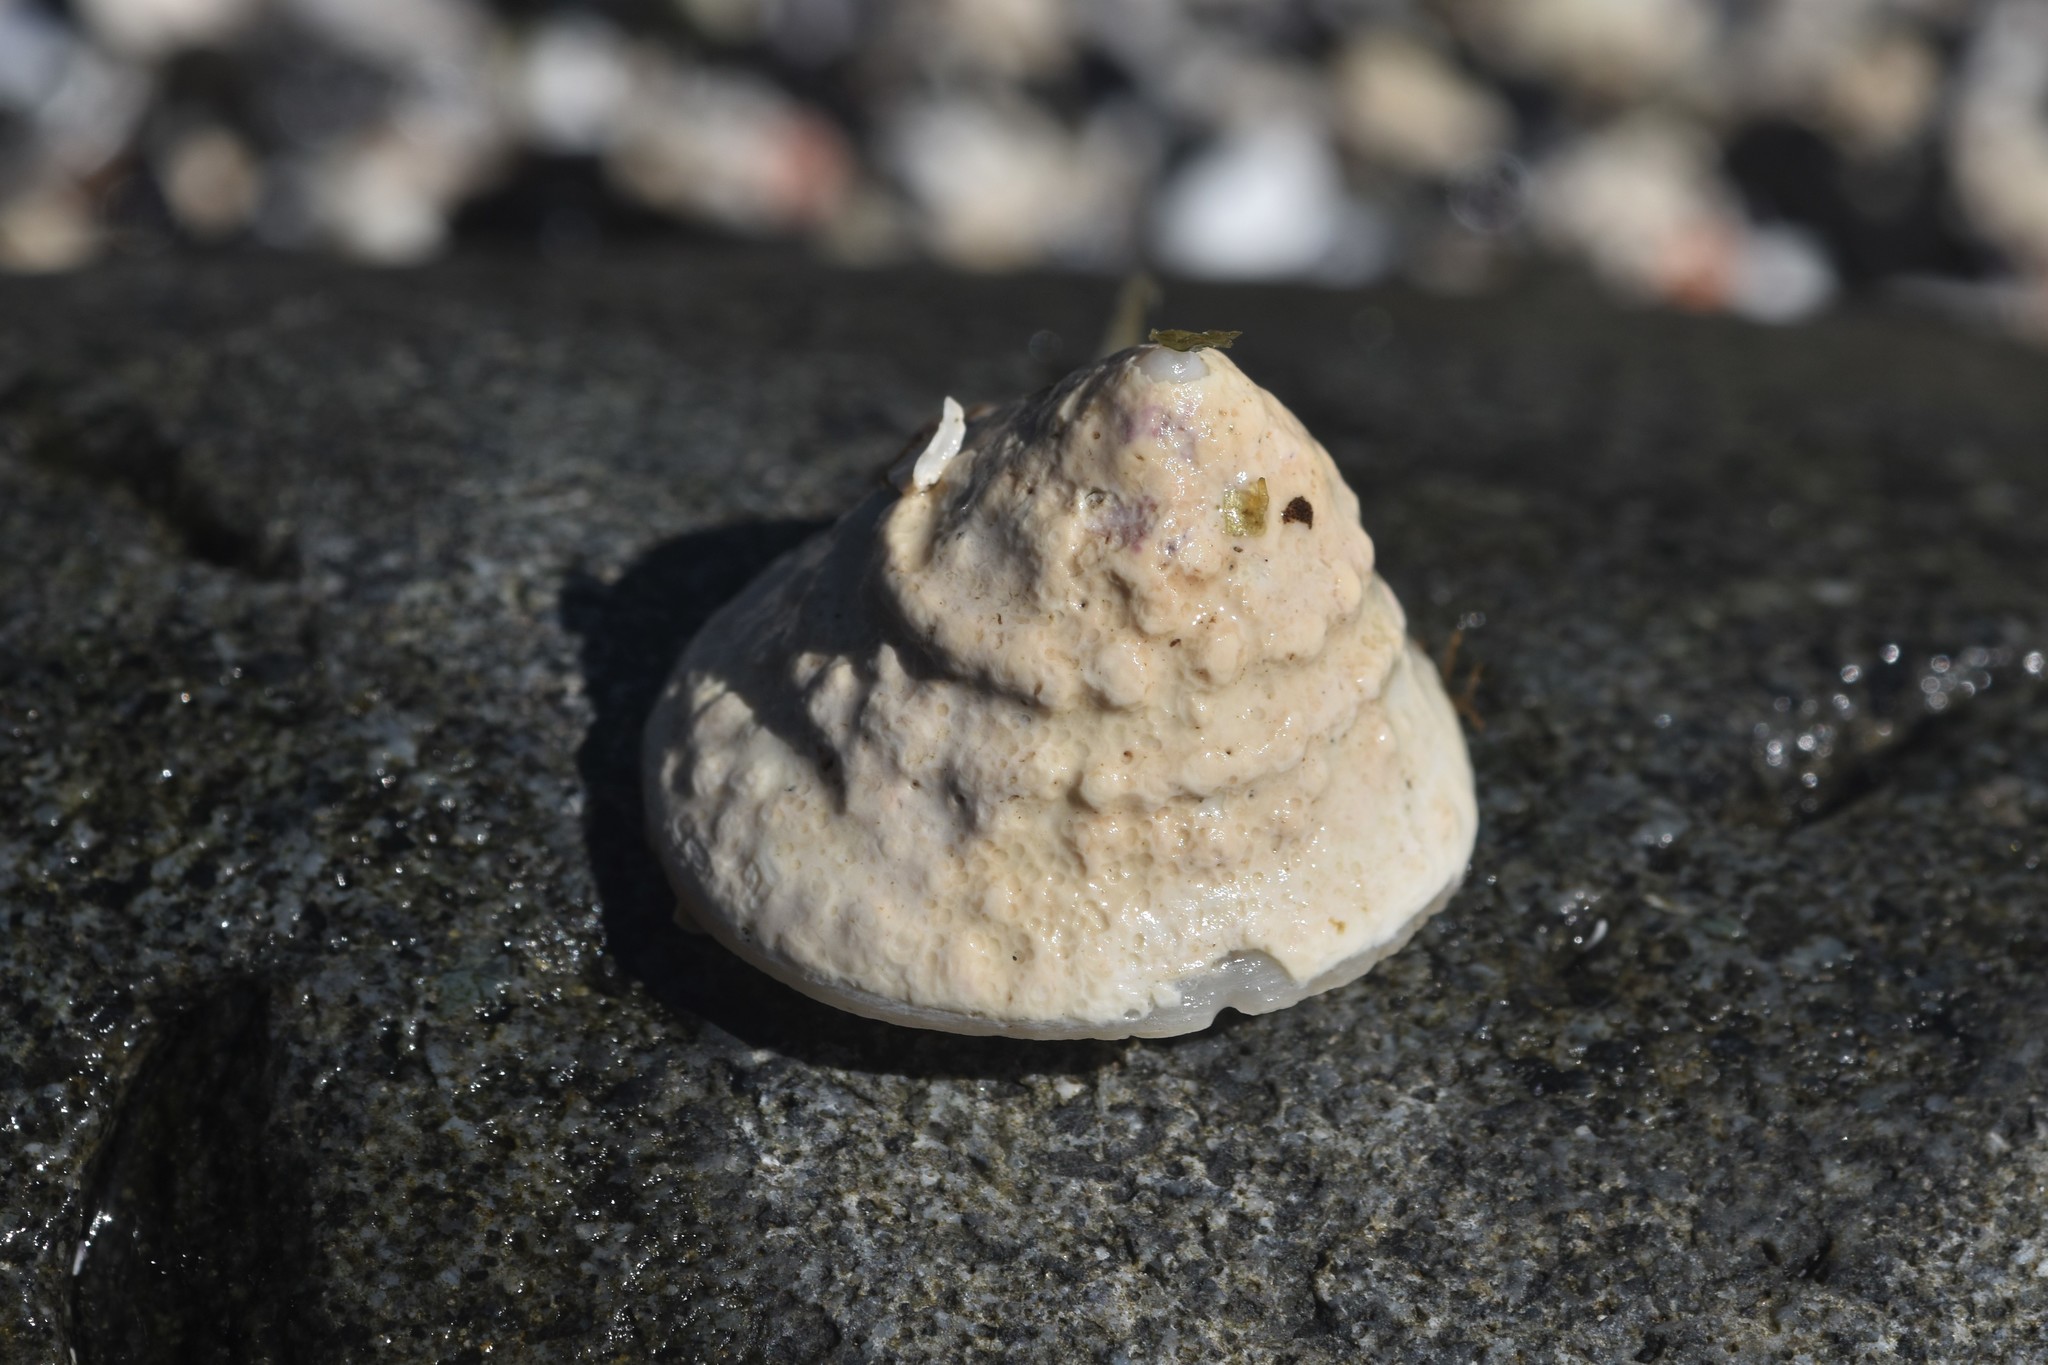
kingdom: Animalia
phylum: Mollusca
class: Gastropoda
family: Acmaeidae
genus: Acmaea
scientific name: Acmaea mitra
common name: Pacific white cap limpet
